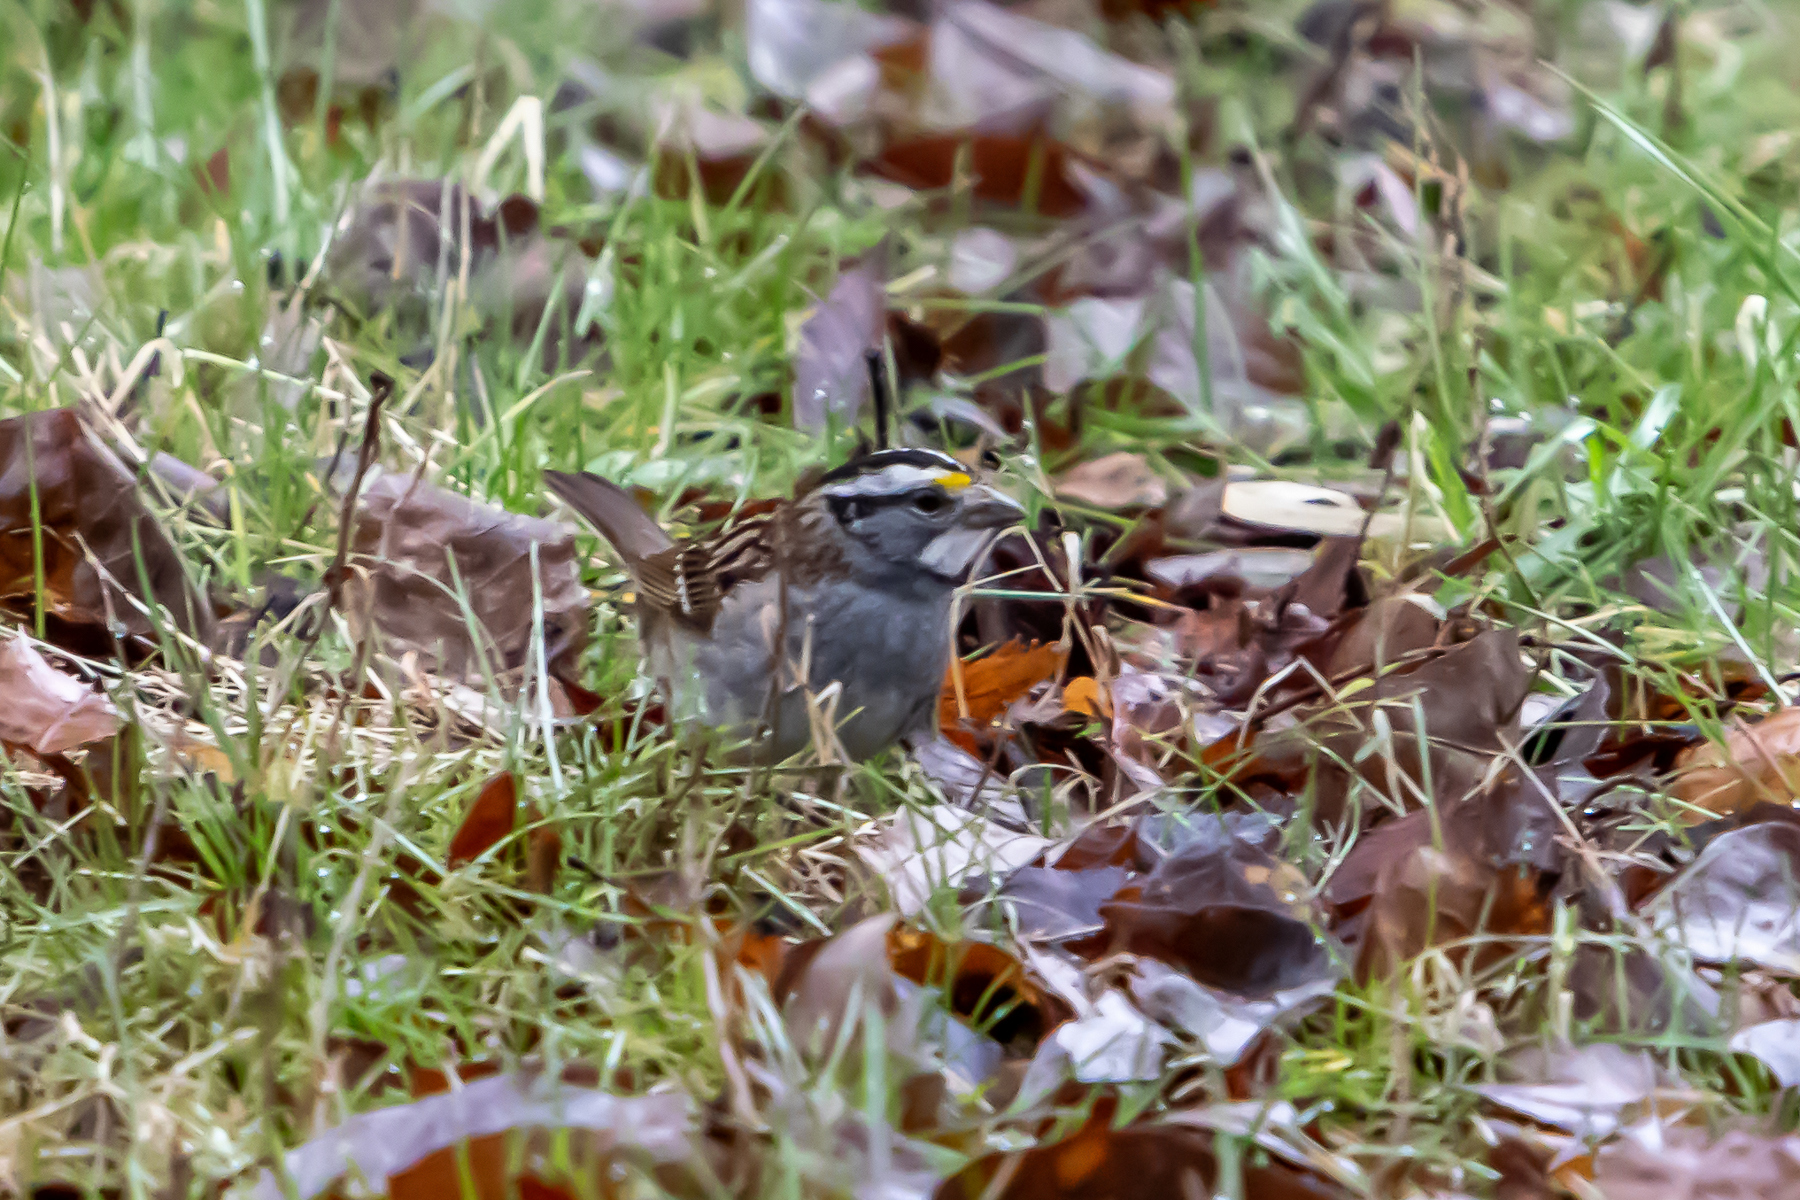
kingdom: Animalia
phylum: Chordata
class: Aves
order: Passeriformes
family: Passerellidae
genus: Zonotrichia
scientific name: Zonotrichia albicollis
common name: White-throated sparrow
